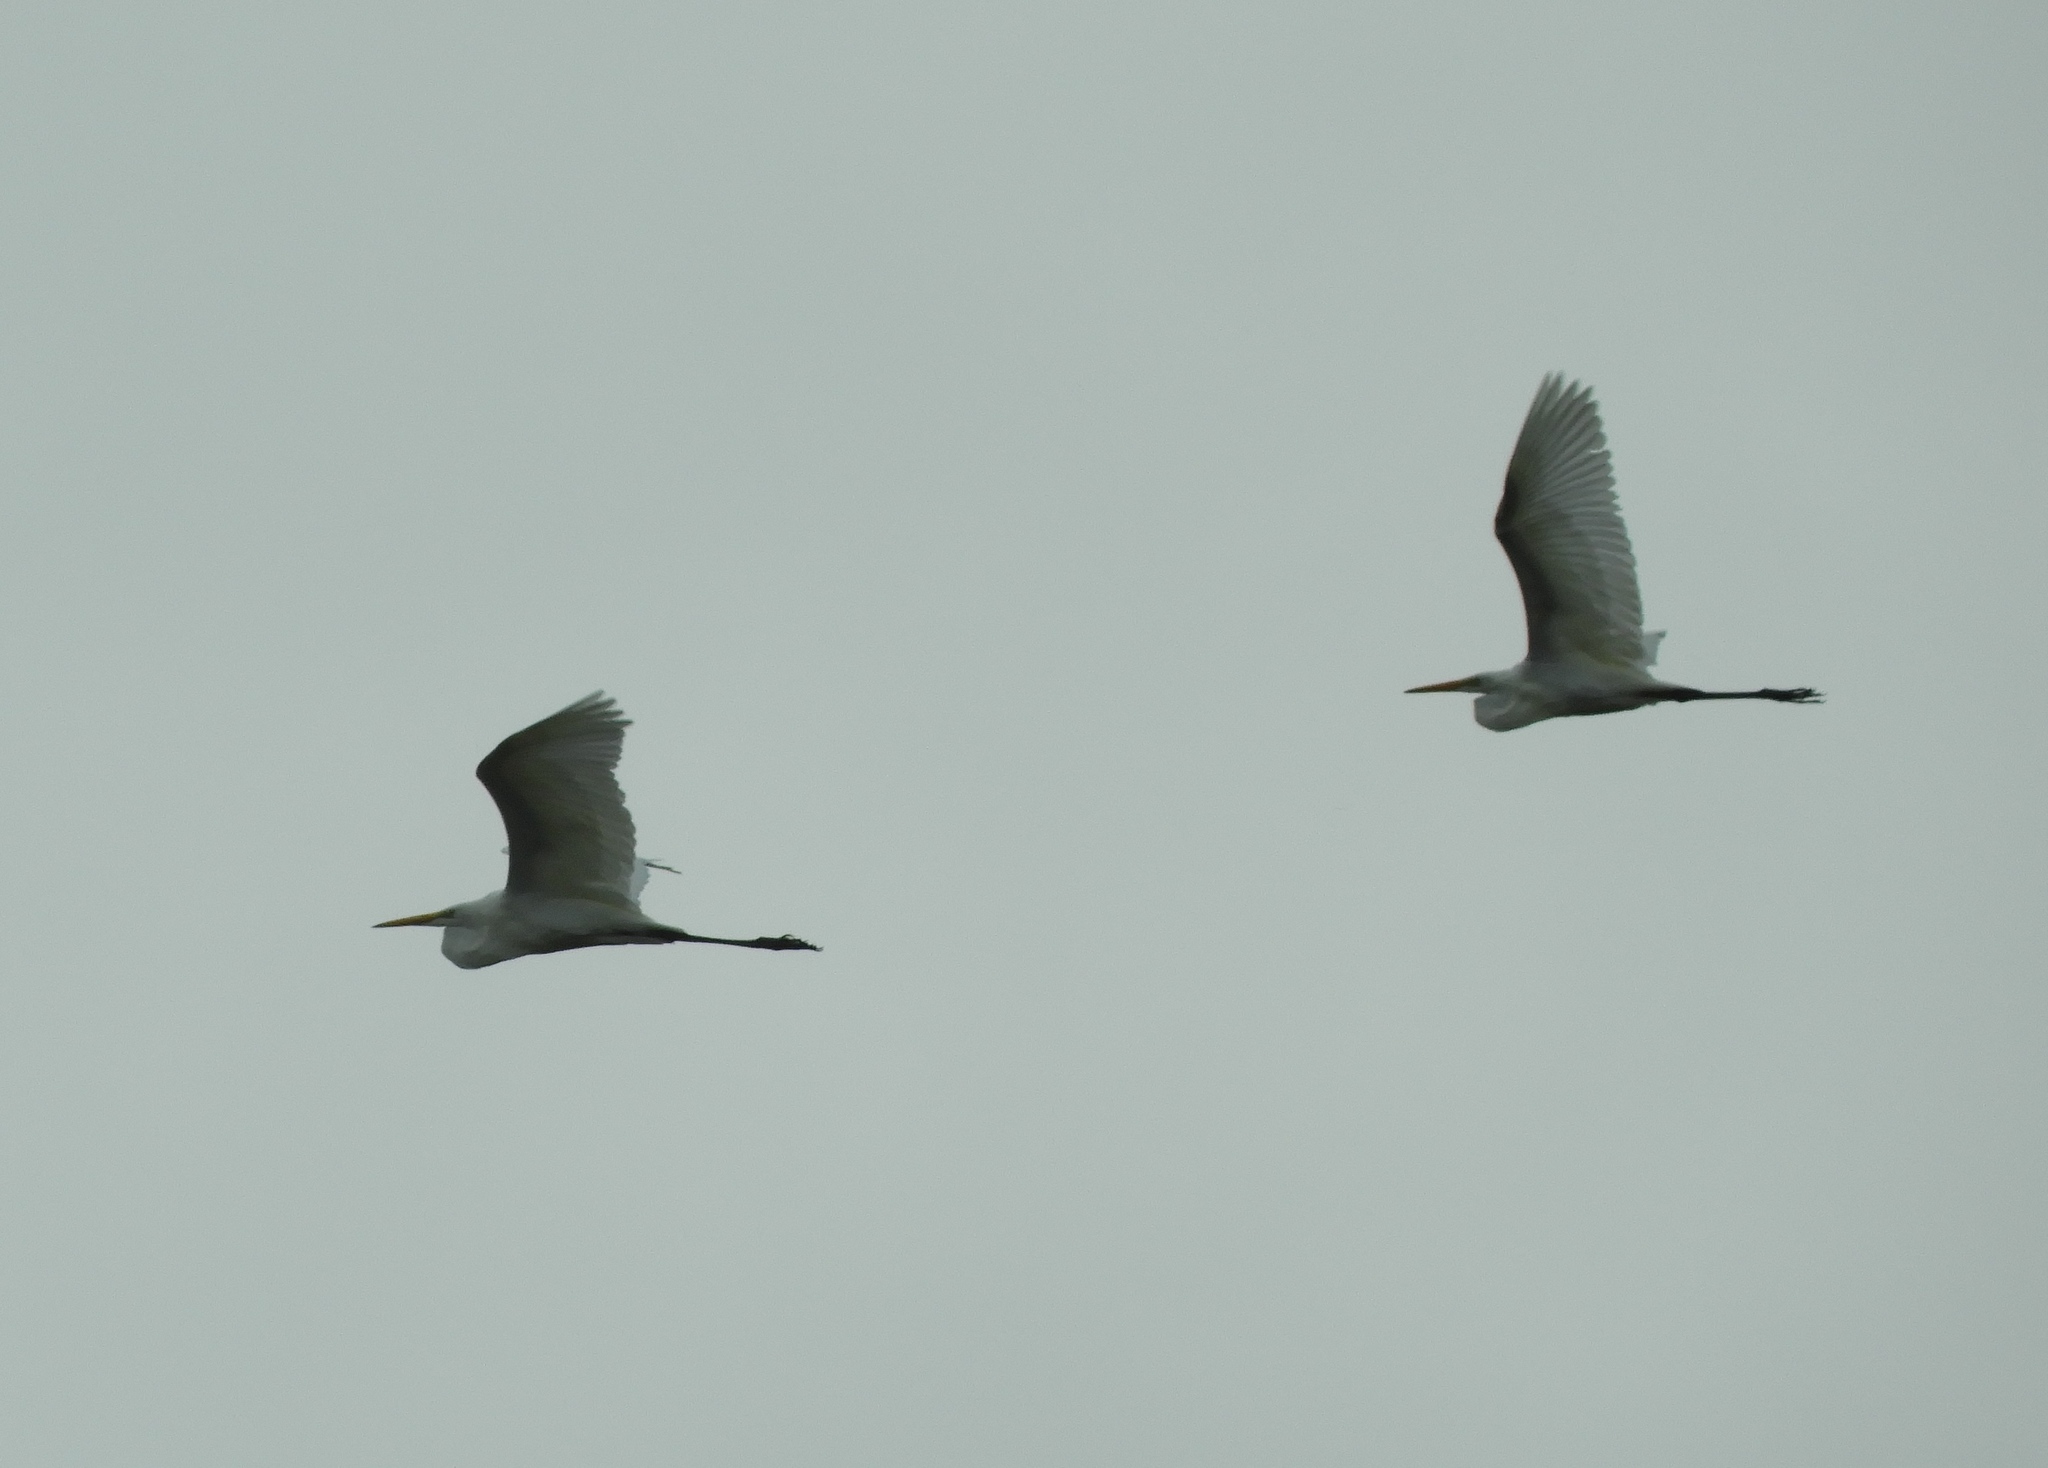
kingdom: Animalia
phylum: Chordata
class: Aves
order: Pelecaniformes
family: Ardeidae
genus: Ardea
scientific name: Ardea alba
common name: Great egret
